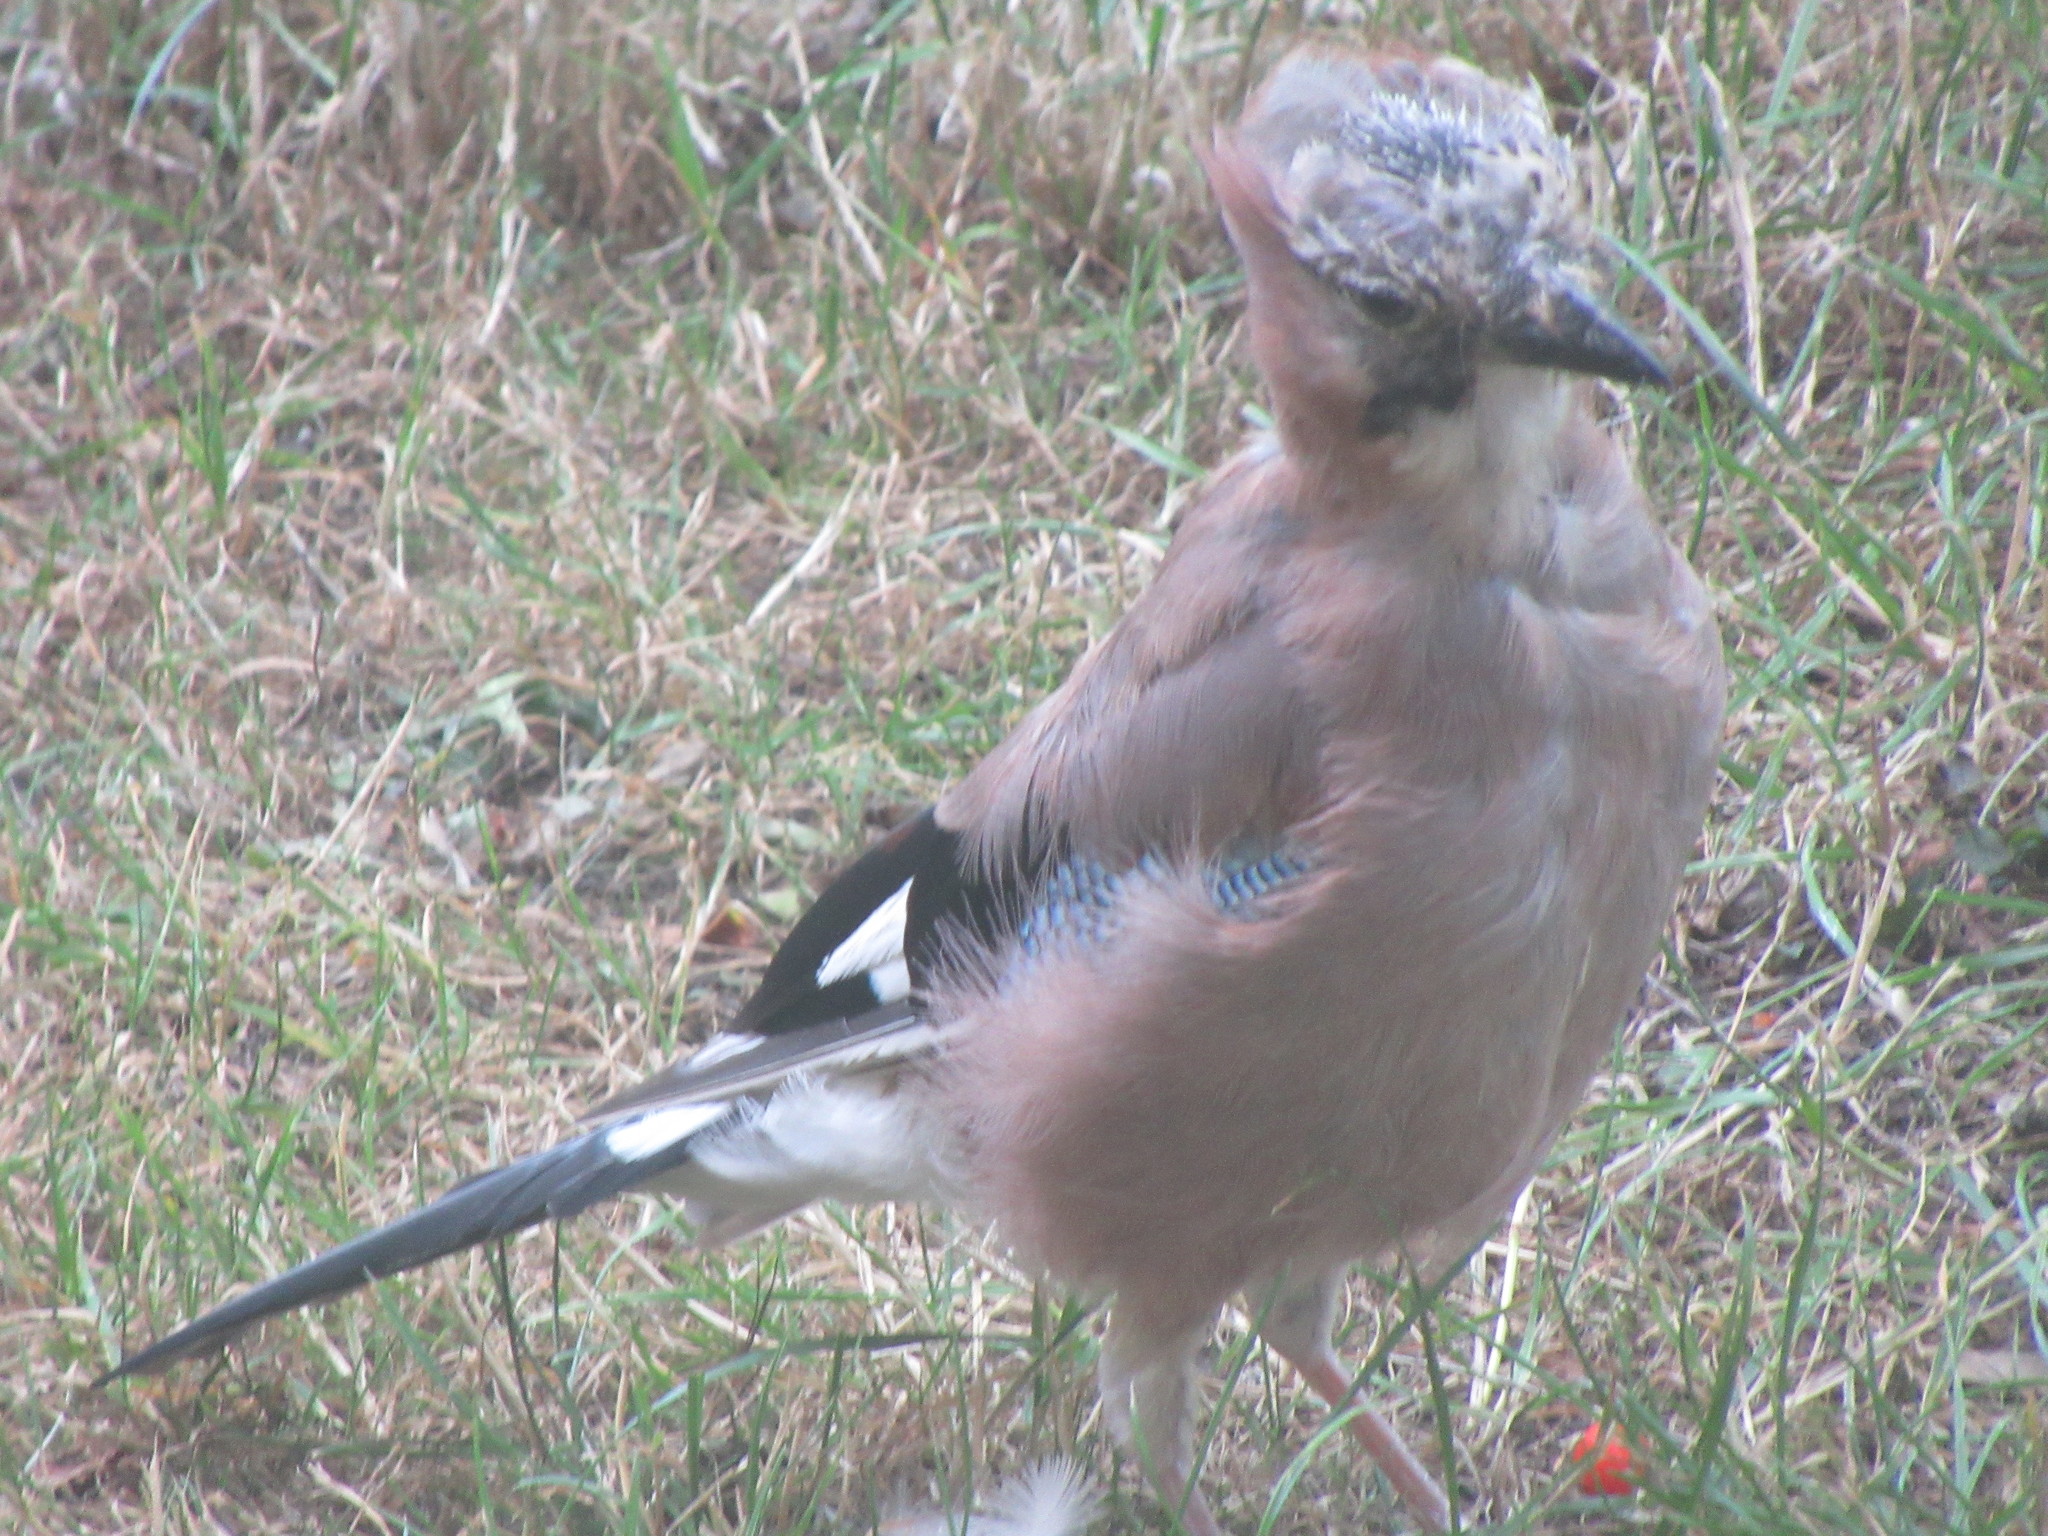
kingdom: Animalia
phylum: Chordata
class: Aves
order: Passeriformes
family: Corvidae
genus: Garrulus
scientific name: Garrulus glandarius
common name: Eurasian jay
